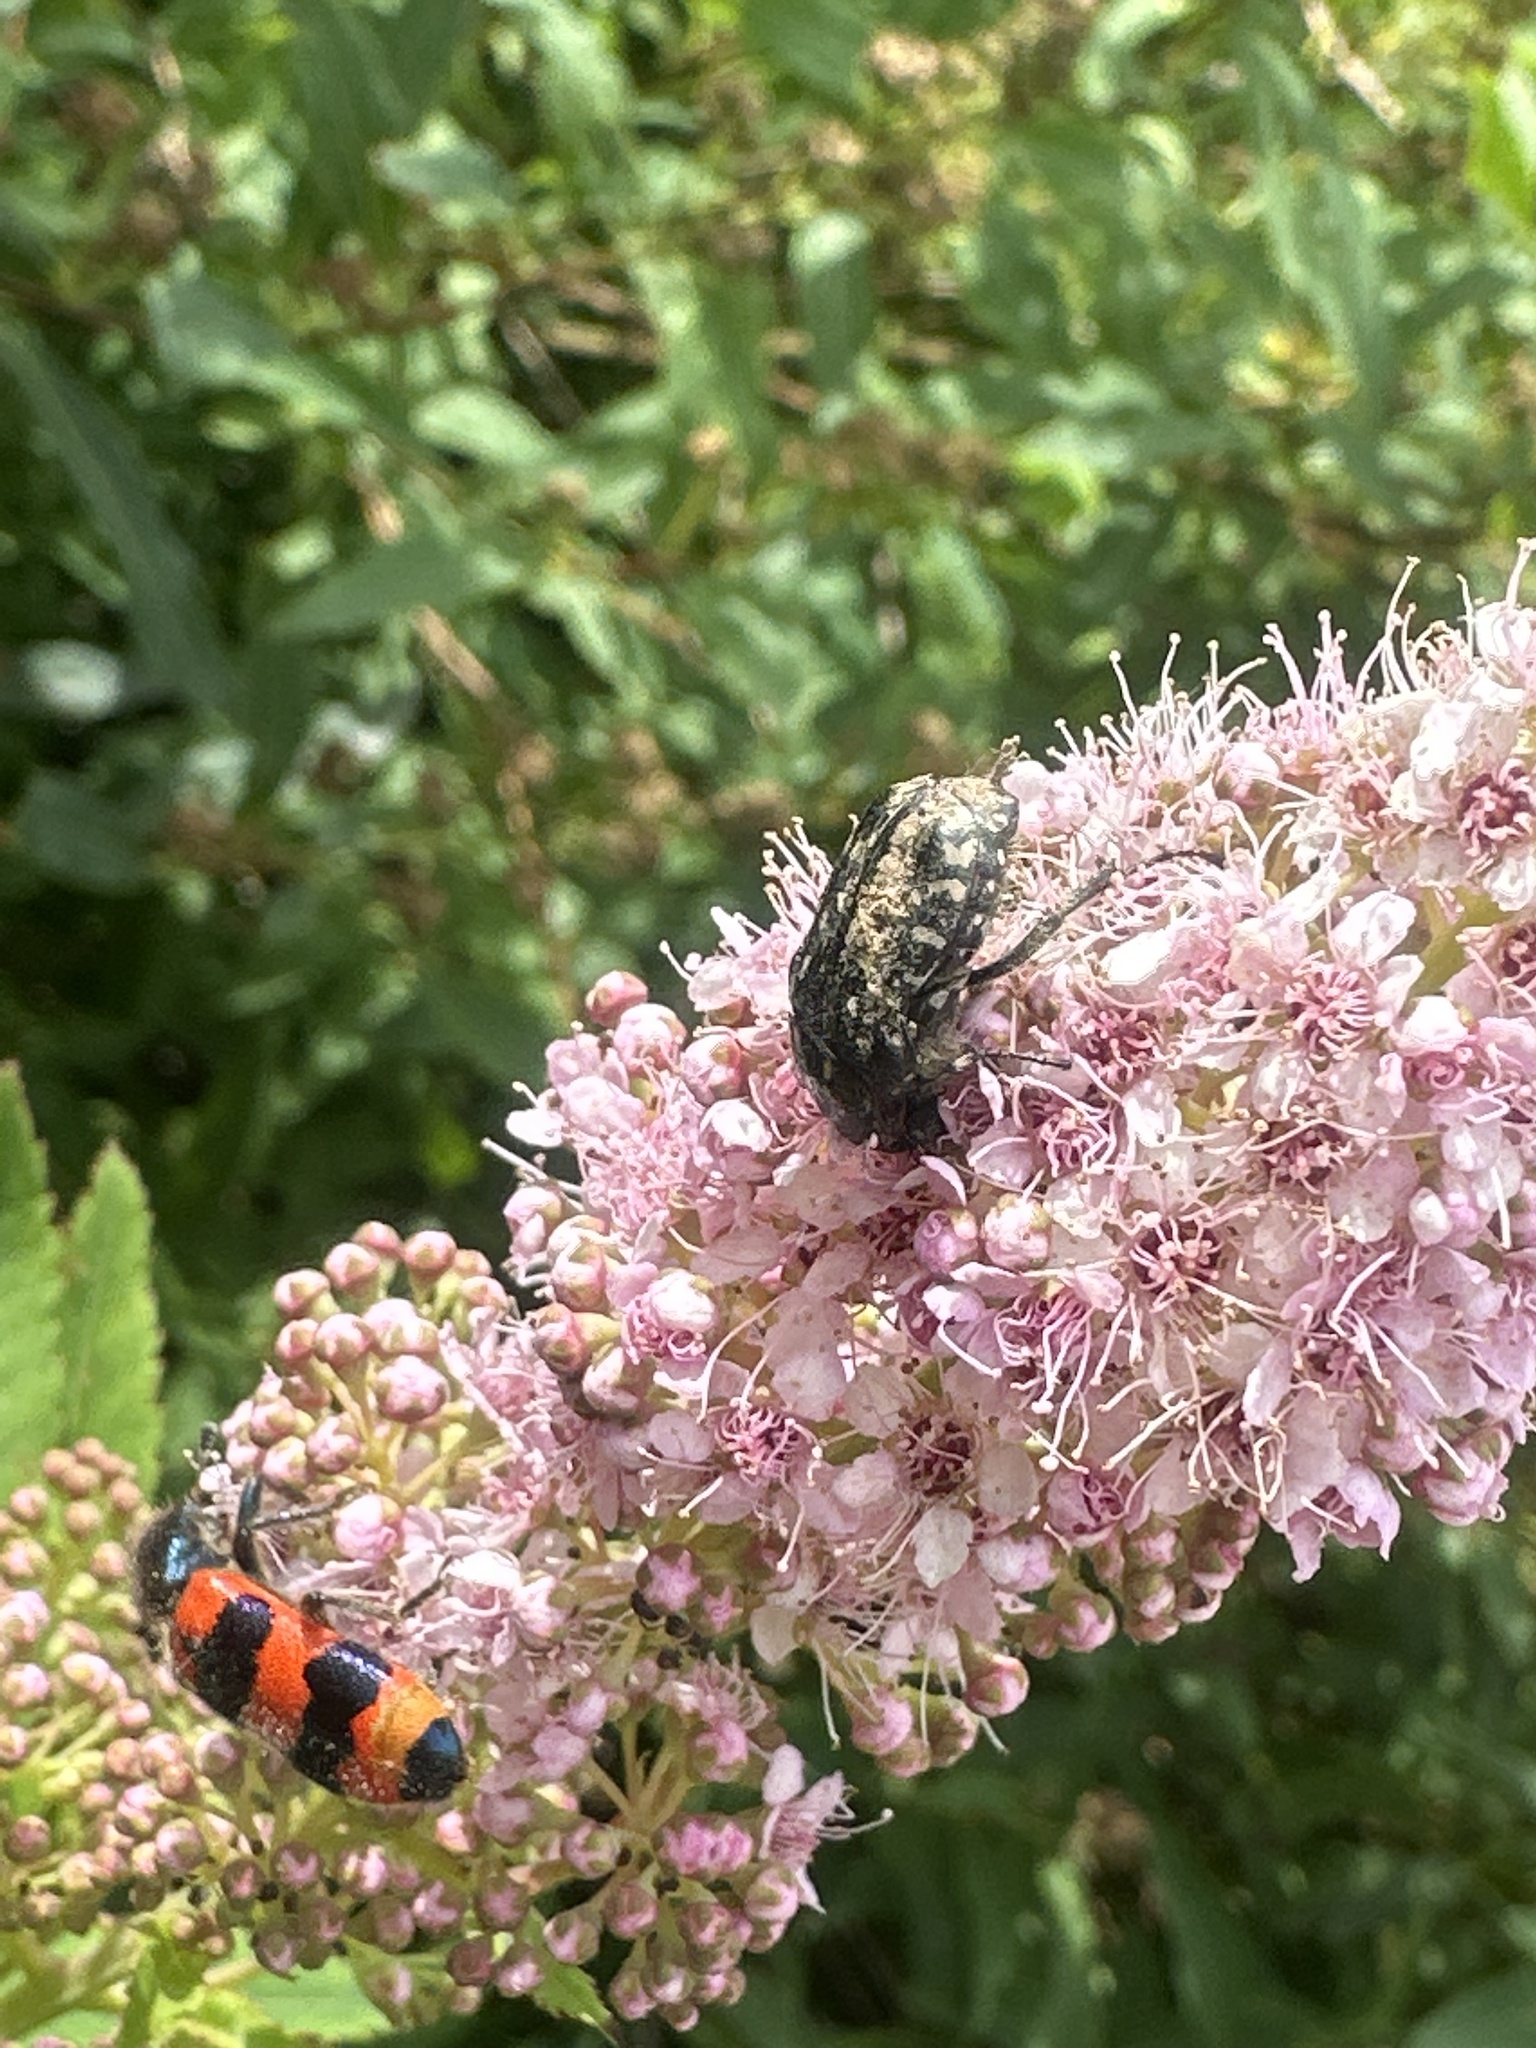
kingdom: Animalia
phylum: Arthropoda
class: Insecta
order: Coleoptera
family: Scarabaeidae
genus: Oxythyrea
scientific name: Oxythyrea funesta
